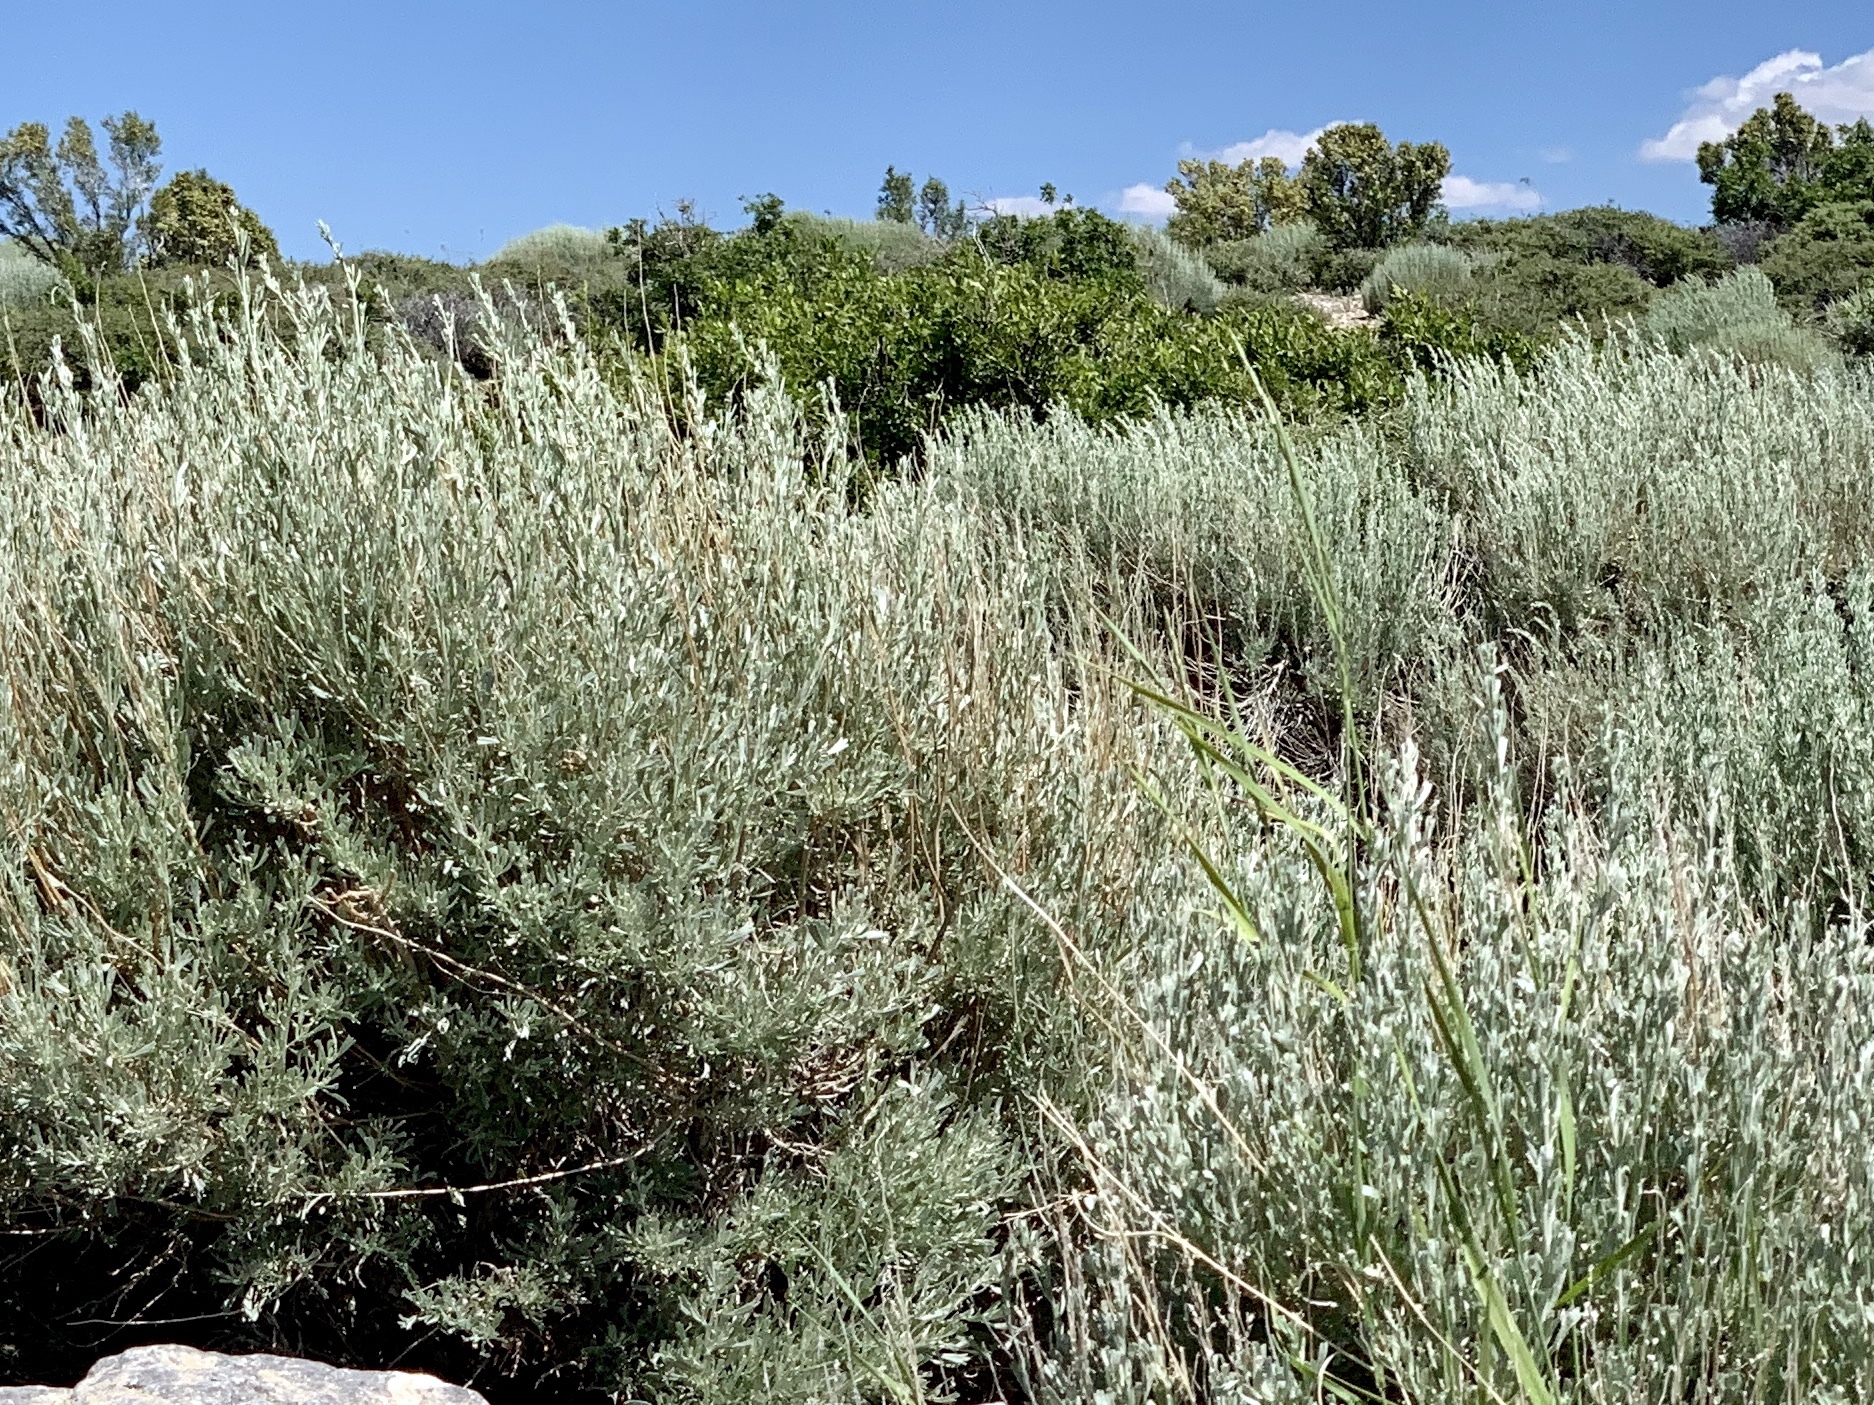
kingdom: Plantae
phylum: Tracheophyta
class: Magnoliopsida
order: Asterales
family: Asteraceae
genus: Artemisia
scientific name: Artemisia tridentata
